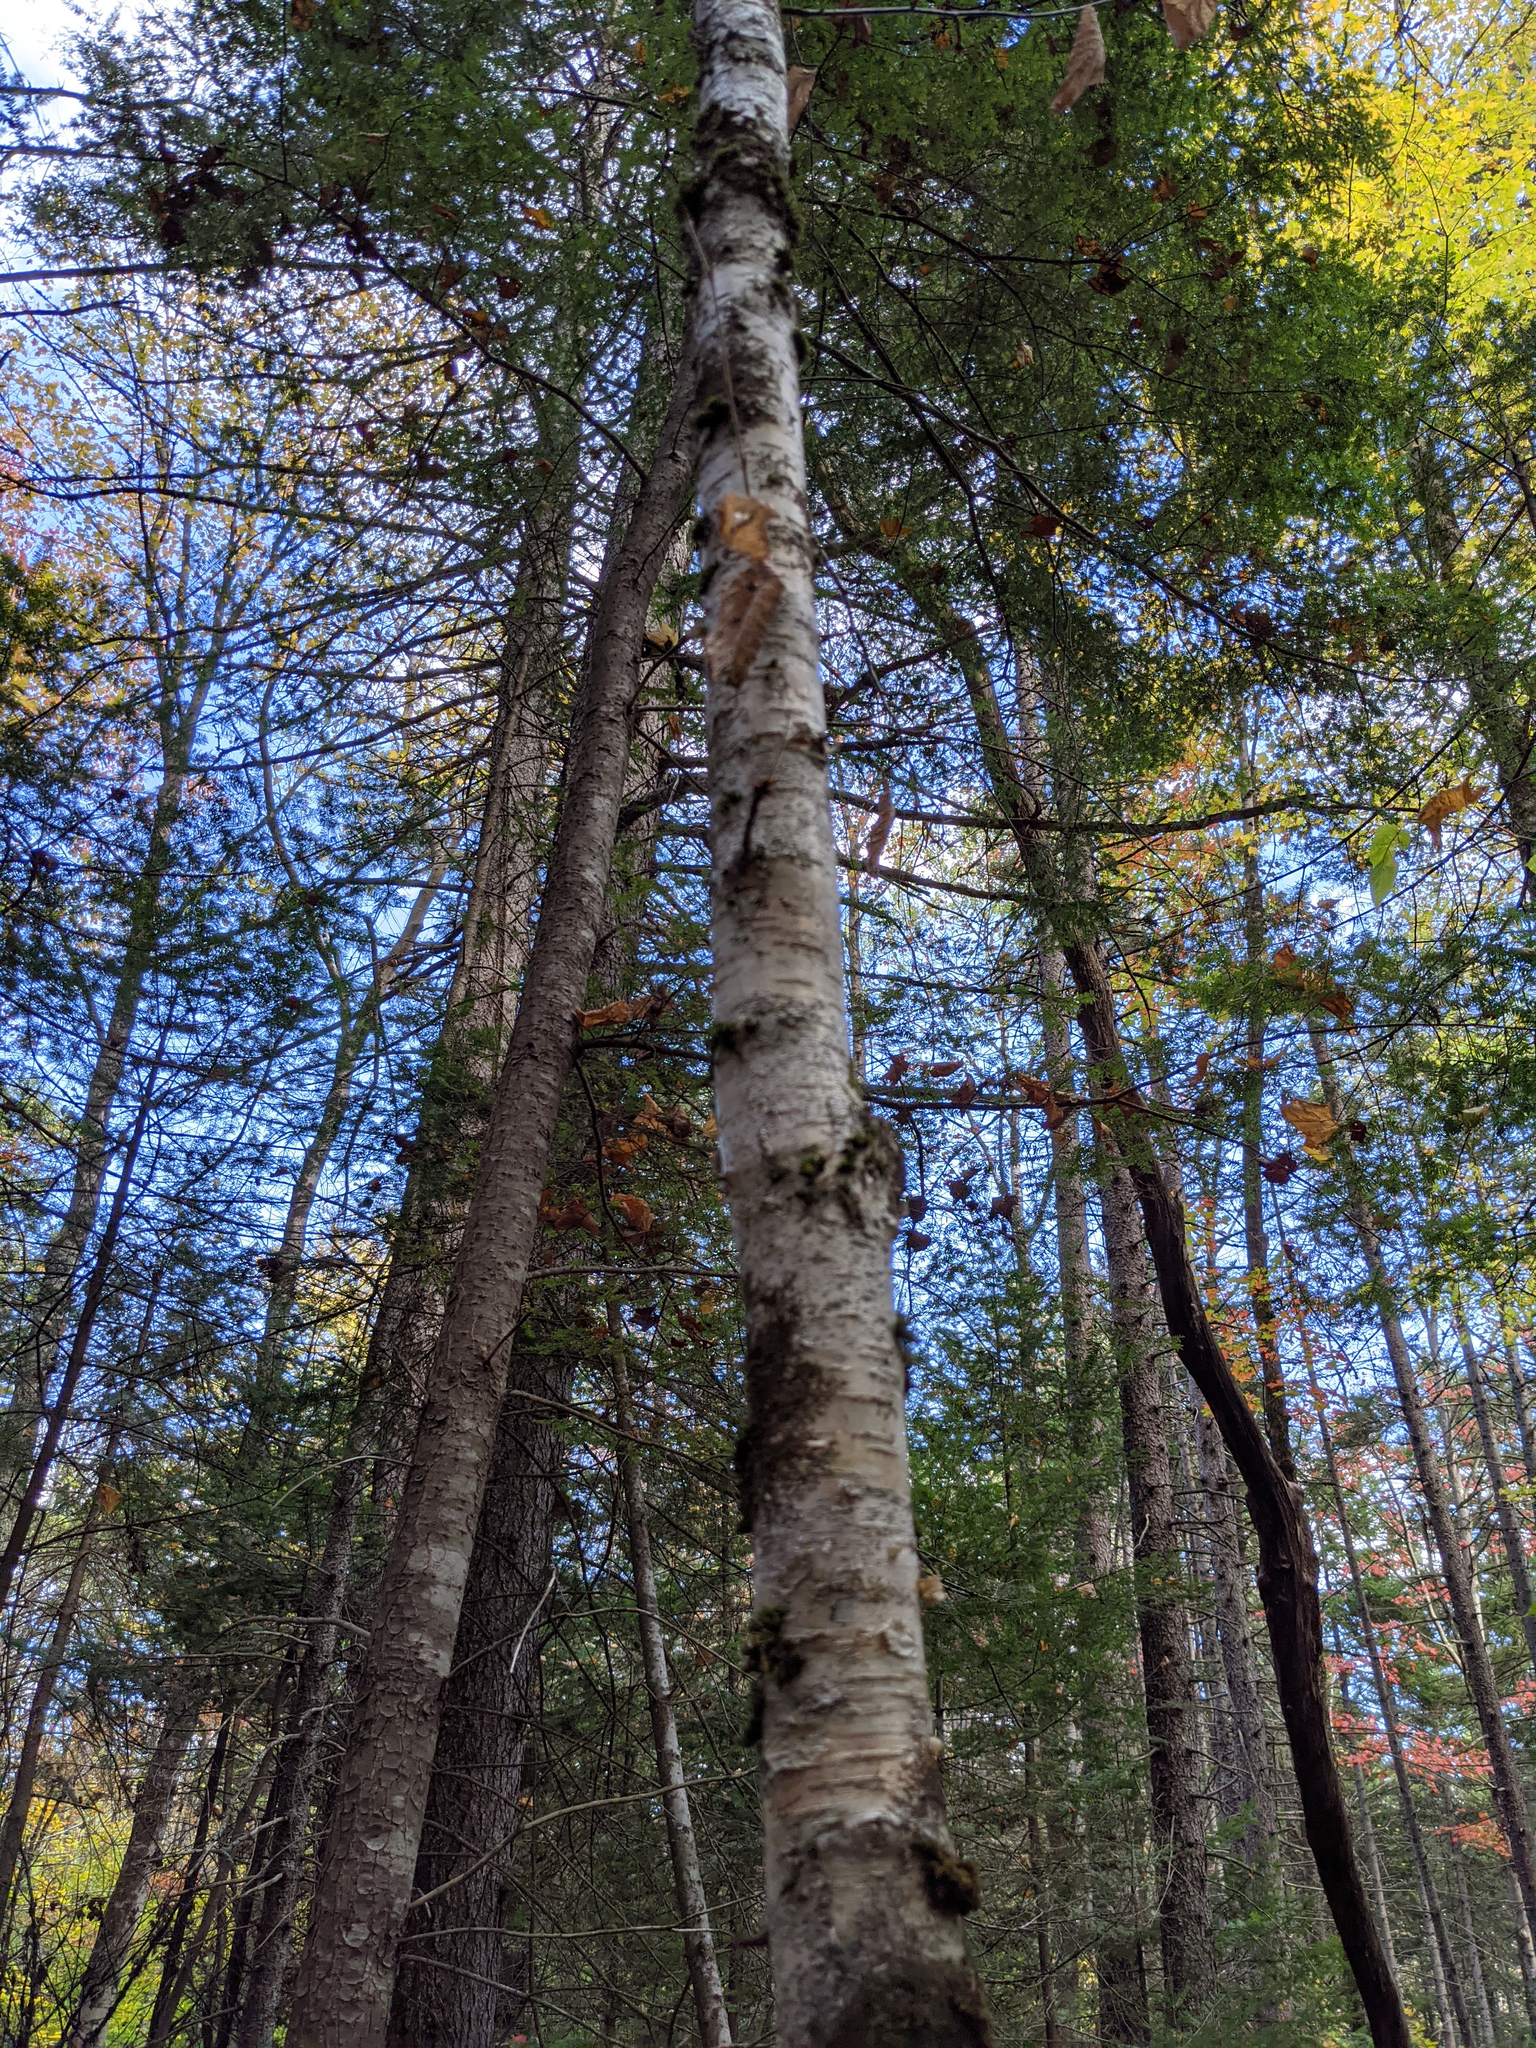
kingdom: Plantae
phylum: Tracheophyta
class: Magnoliopsida
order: Fagales
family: Betulaceae
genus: Betula
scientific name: Betula alleghaniensis
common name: Yellow birch
